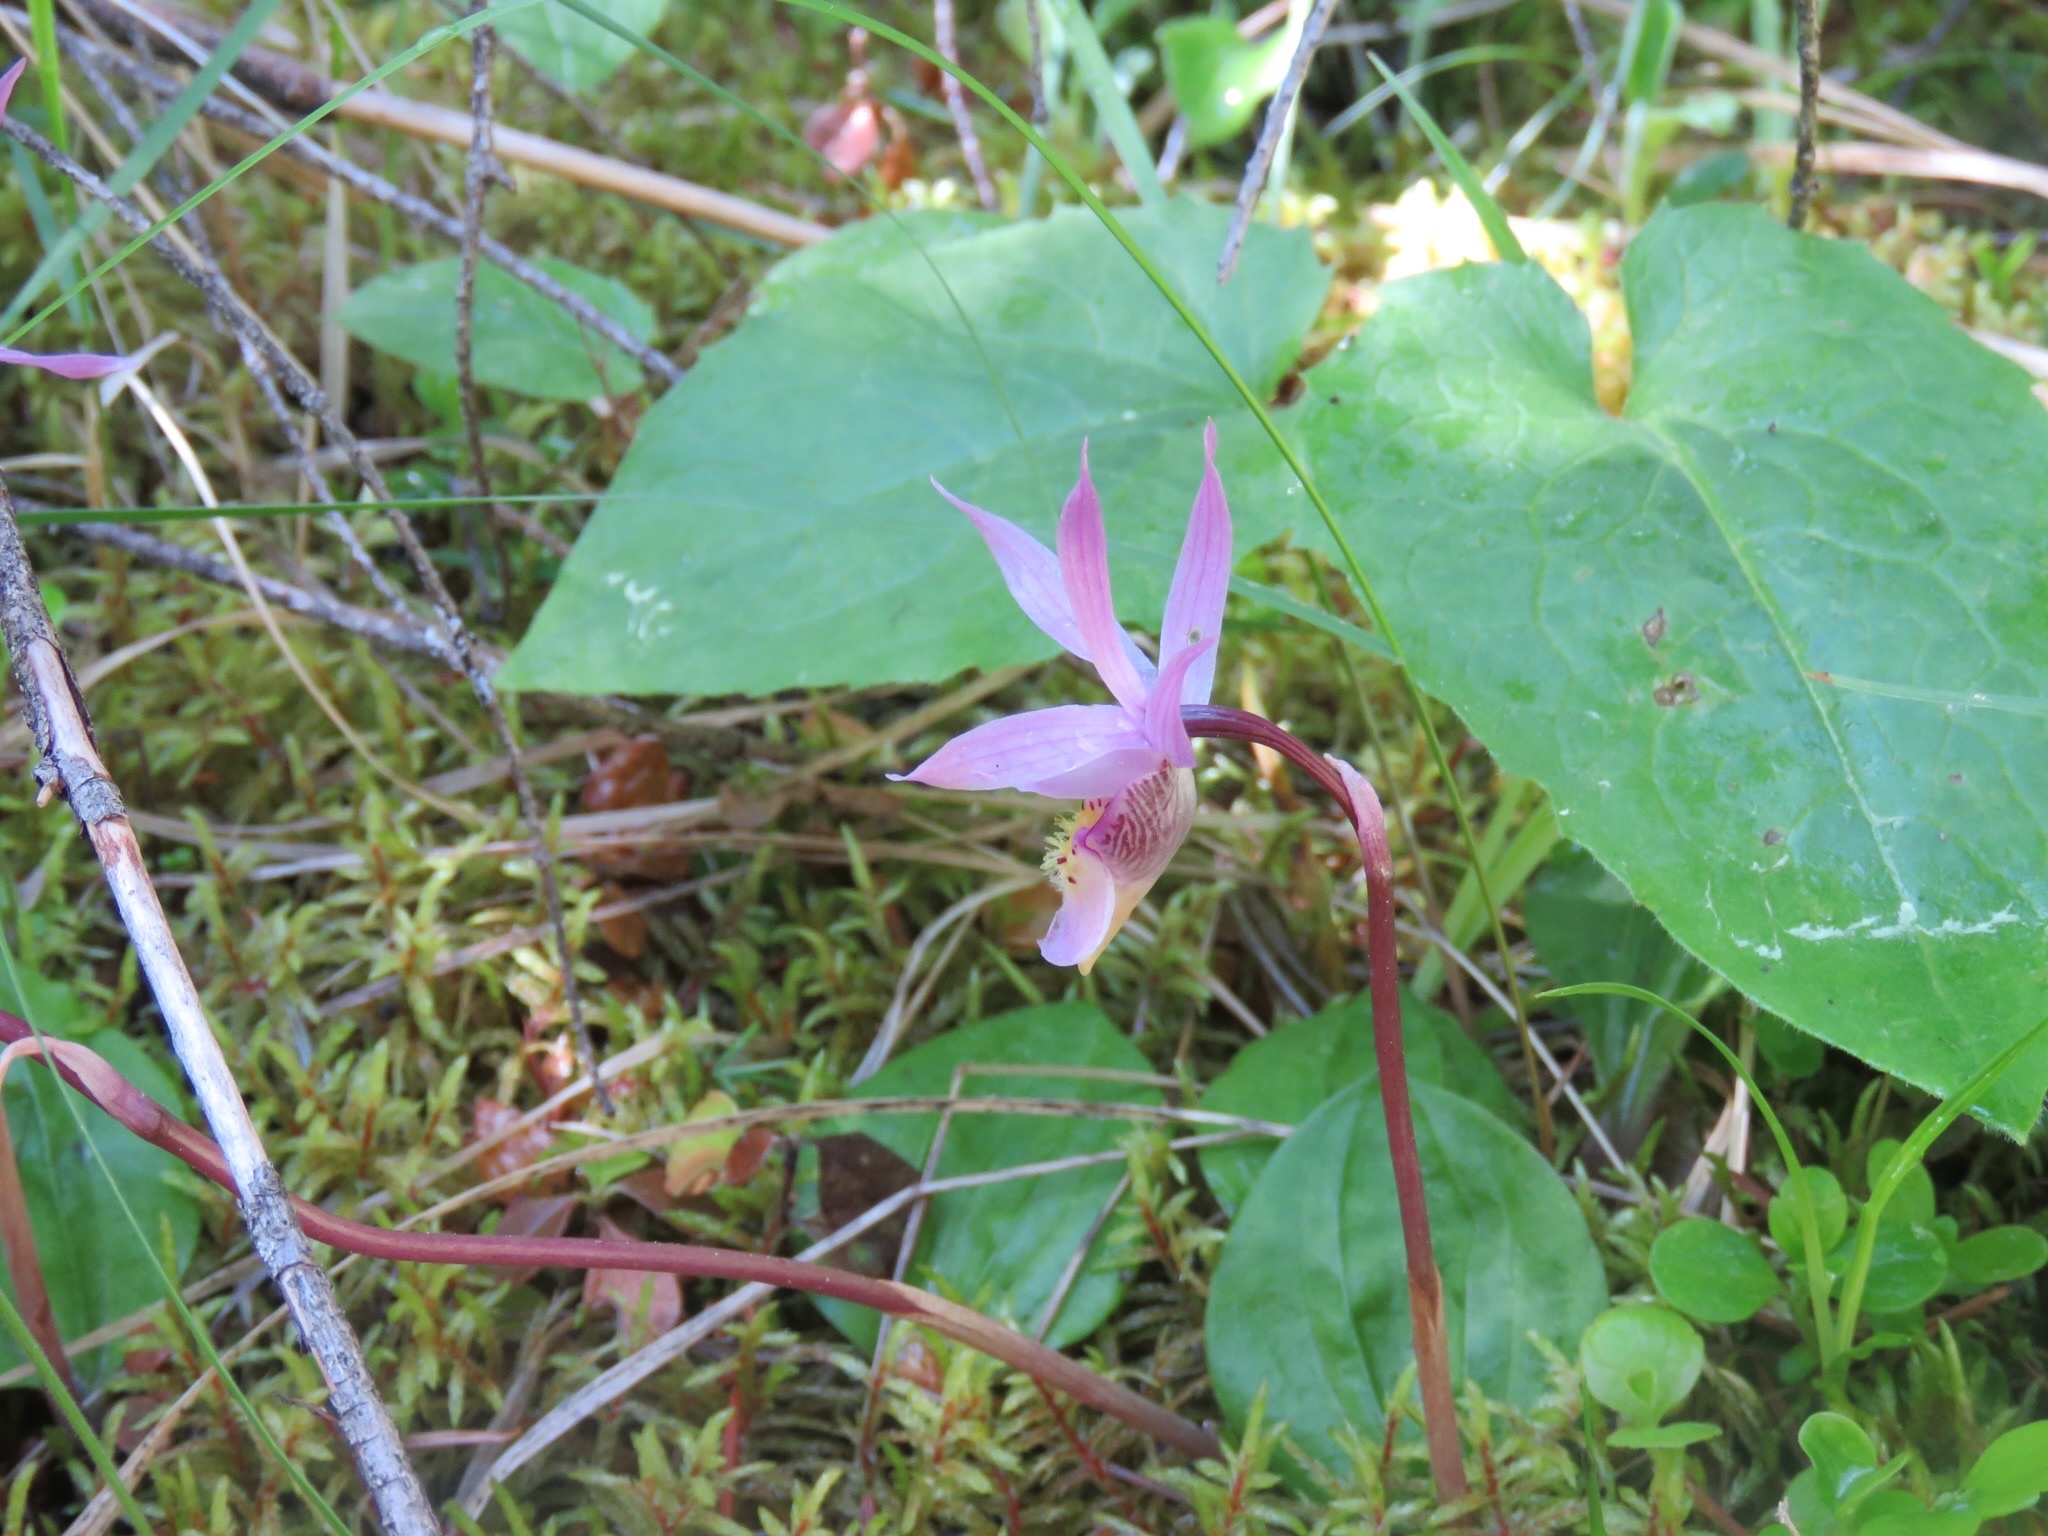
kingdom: Plantae
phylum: Tracheophyta
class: Liliopsida
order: Asparagales
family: Orchidaceae
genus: Calypso
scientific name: Calypso bulbosa
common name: Calypso
